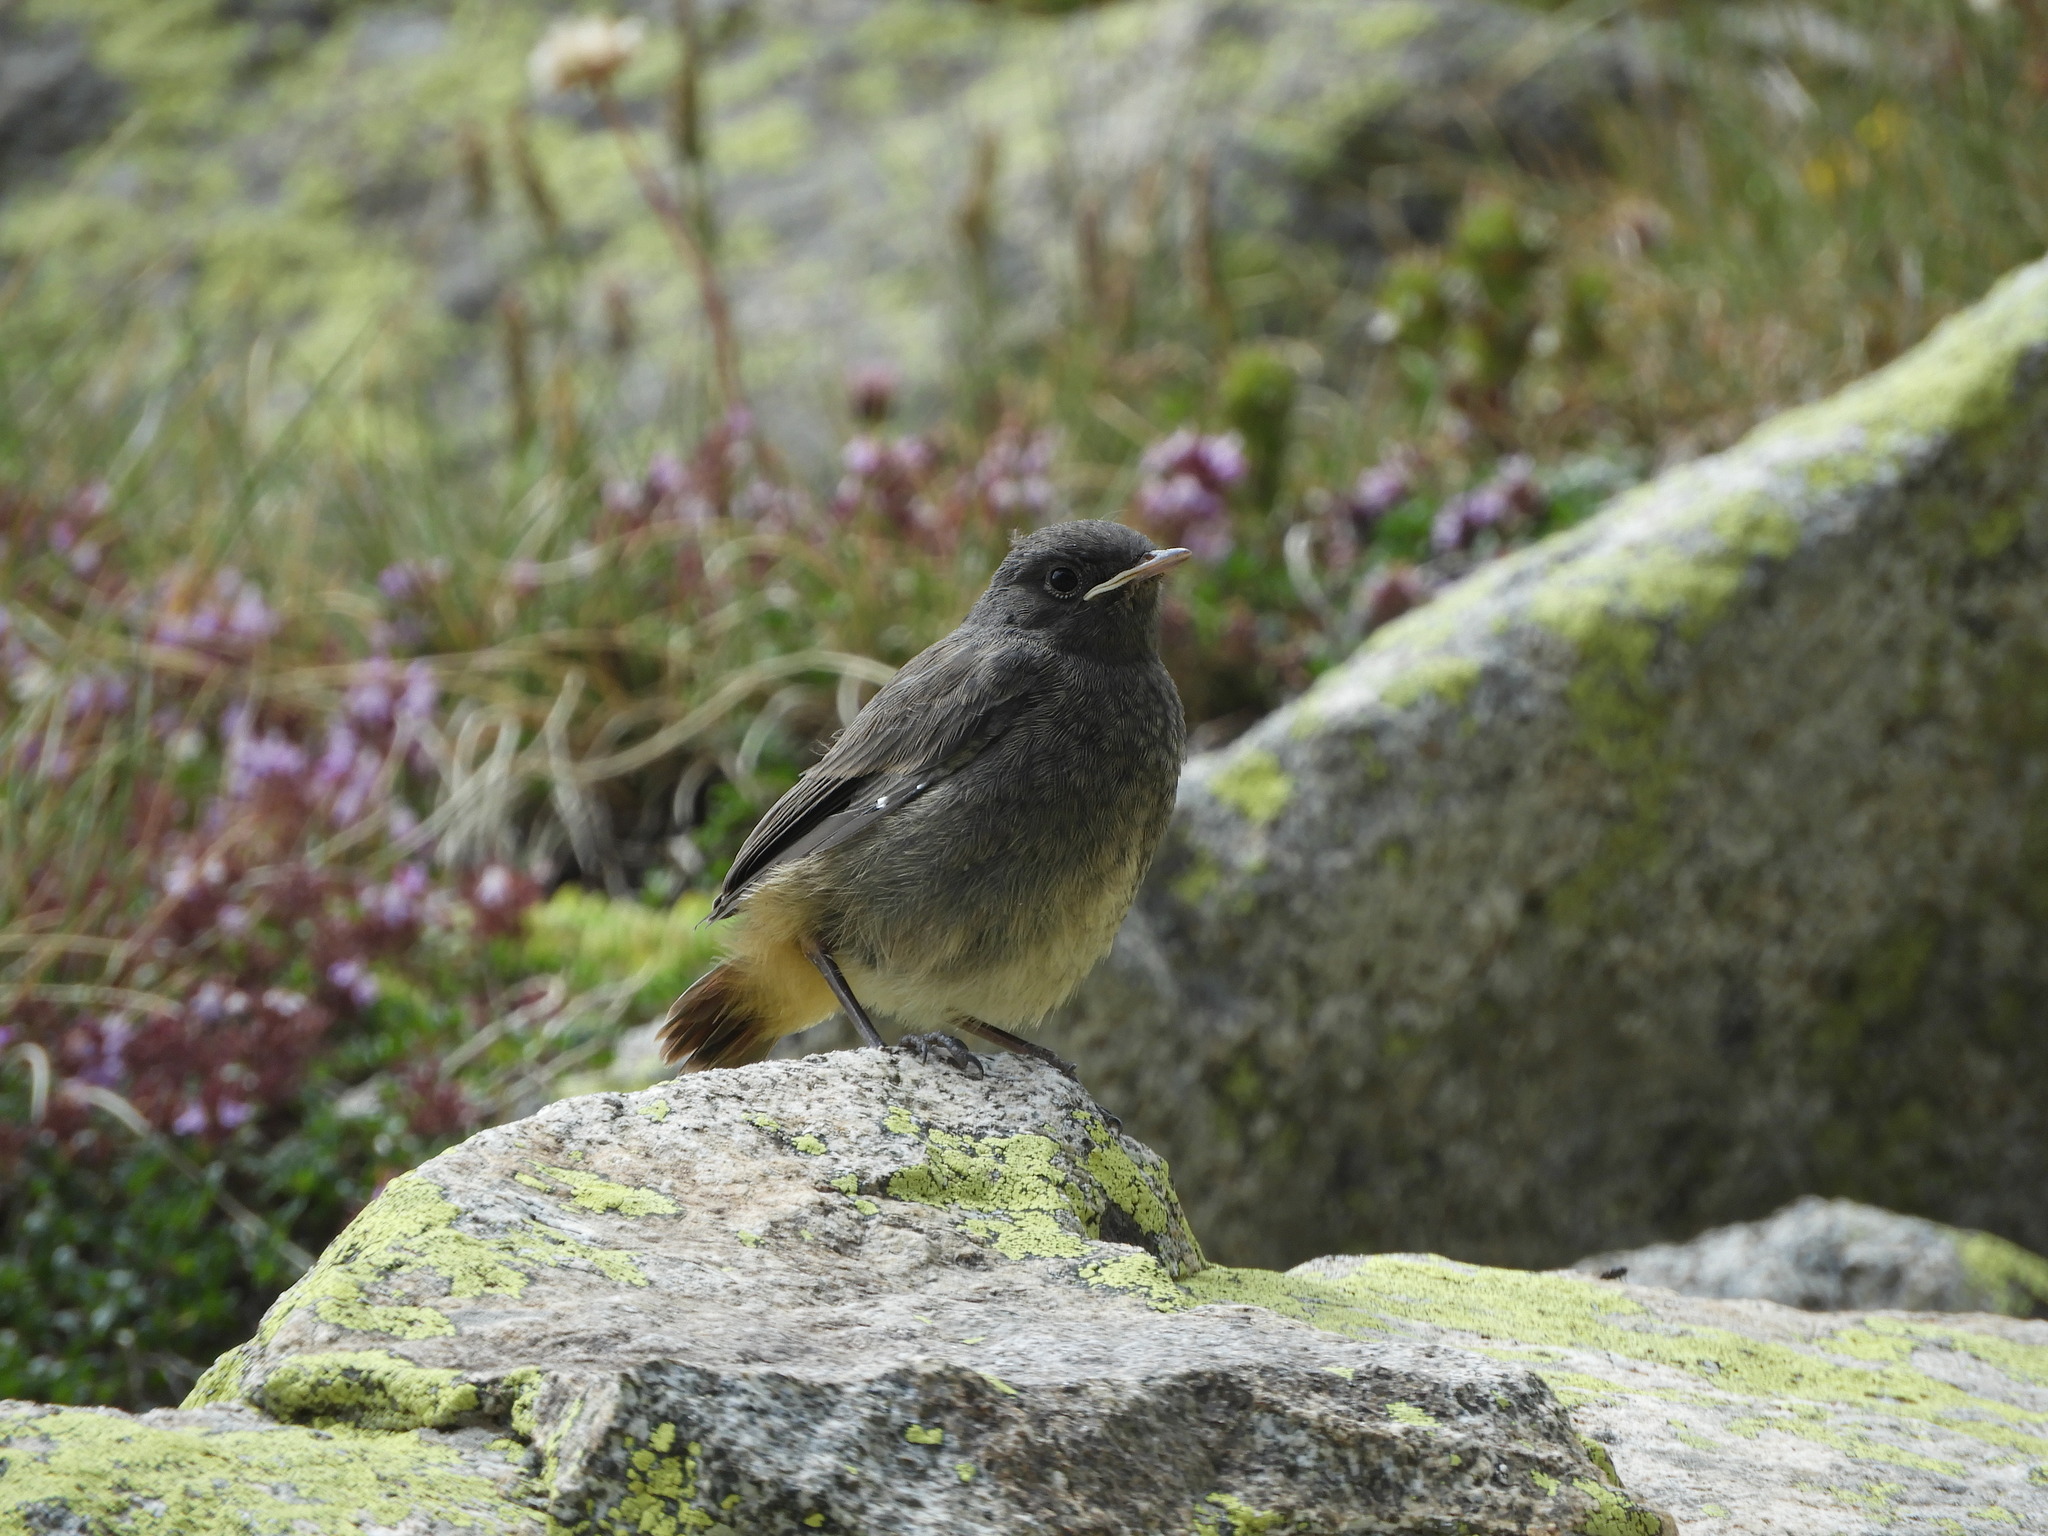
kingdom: Animalia
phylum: Chordata
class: Aves
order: Passeriformes
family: Muscicapidae
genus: Phoenicurus
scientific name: Phoenicurus ochruros
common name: Black redstart
